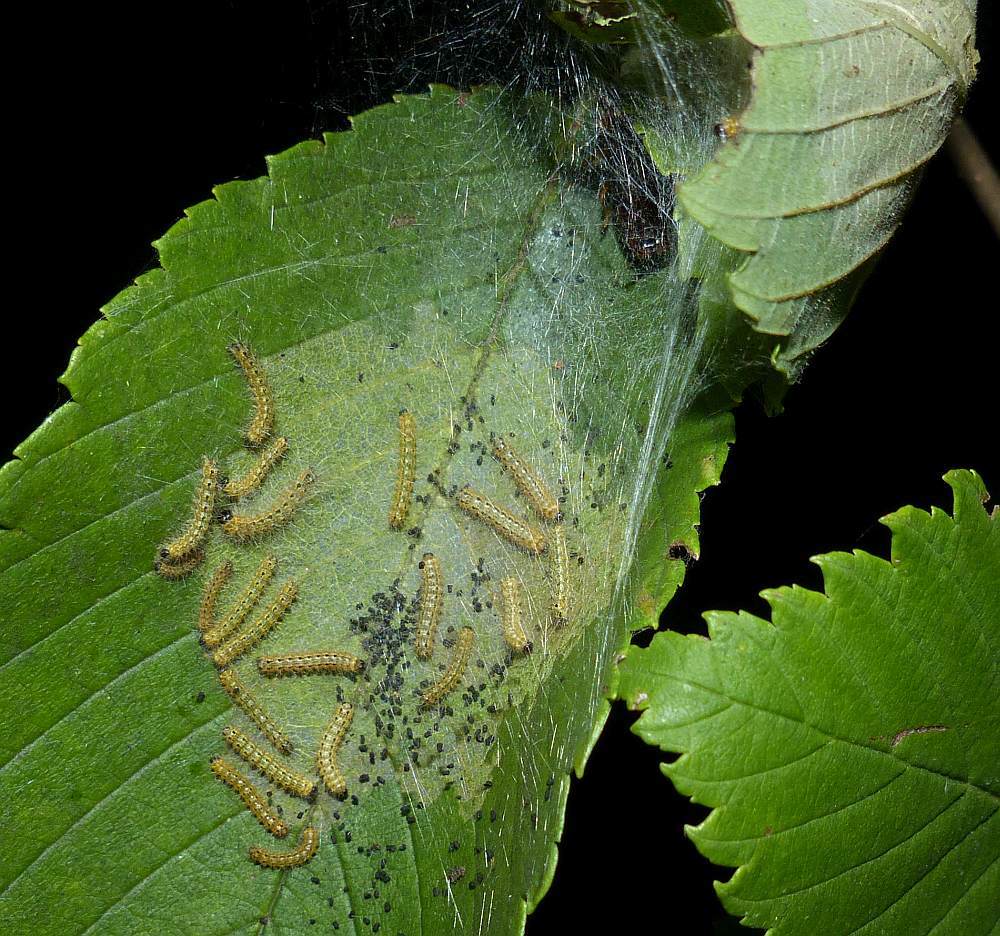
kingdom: Animalia
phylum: Arthropoda
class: Insecta
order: Lepidoptera
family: Erebidae
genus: Hyphantria
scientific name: Hyphantria cunea
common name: American white moth
